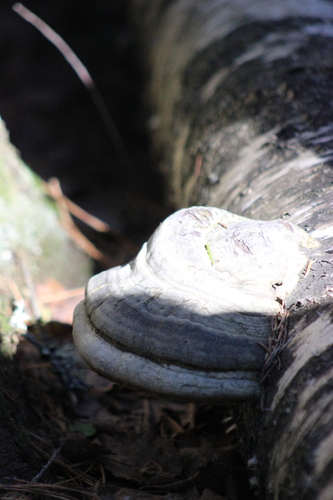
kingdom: Fungi
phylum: Basidiomycota
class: Agaricomycetes
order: Polyporales
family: Polyporaceae
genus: Fomes
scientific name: Fomes fomentarius
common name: Hoof fungus
